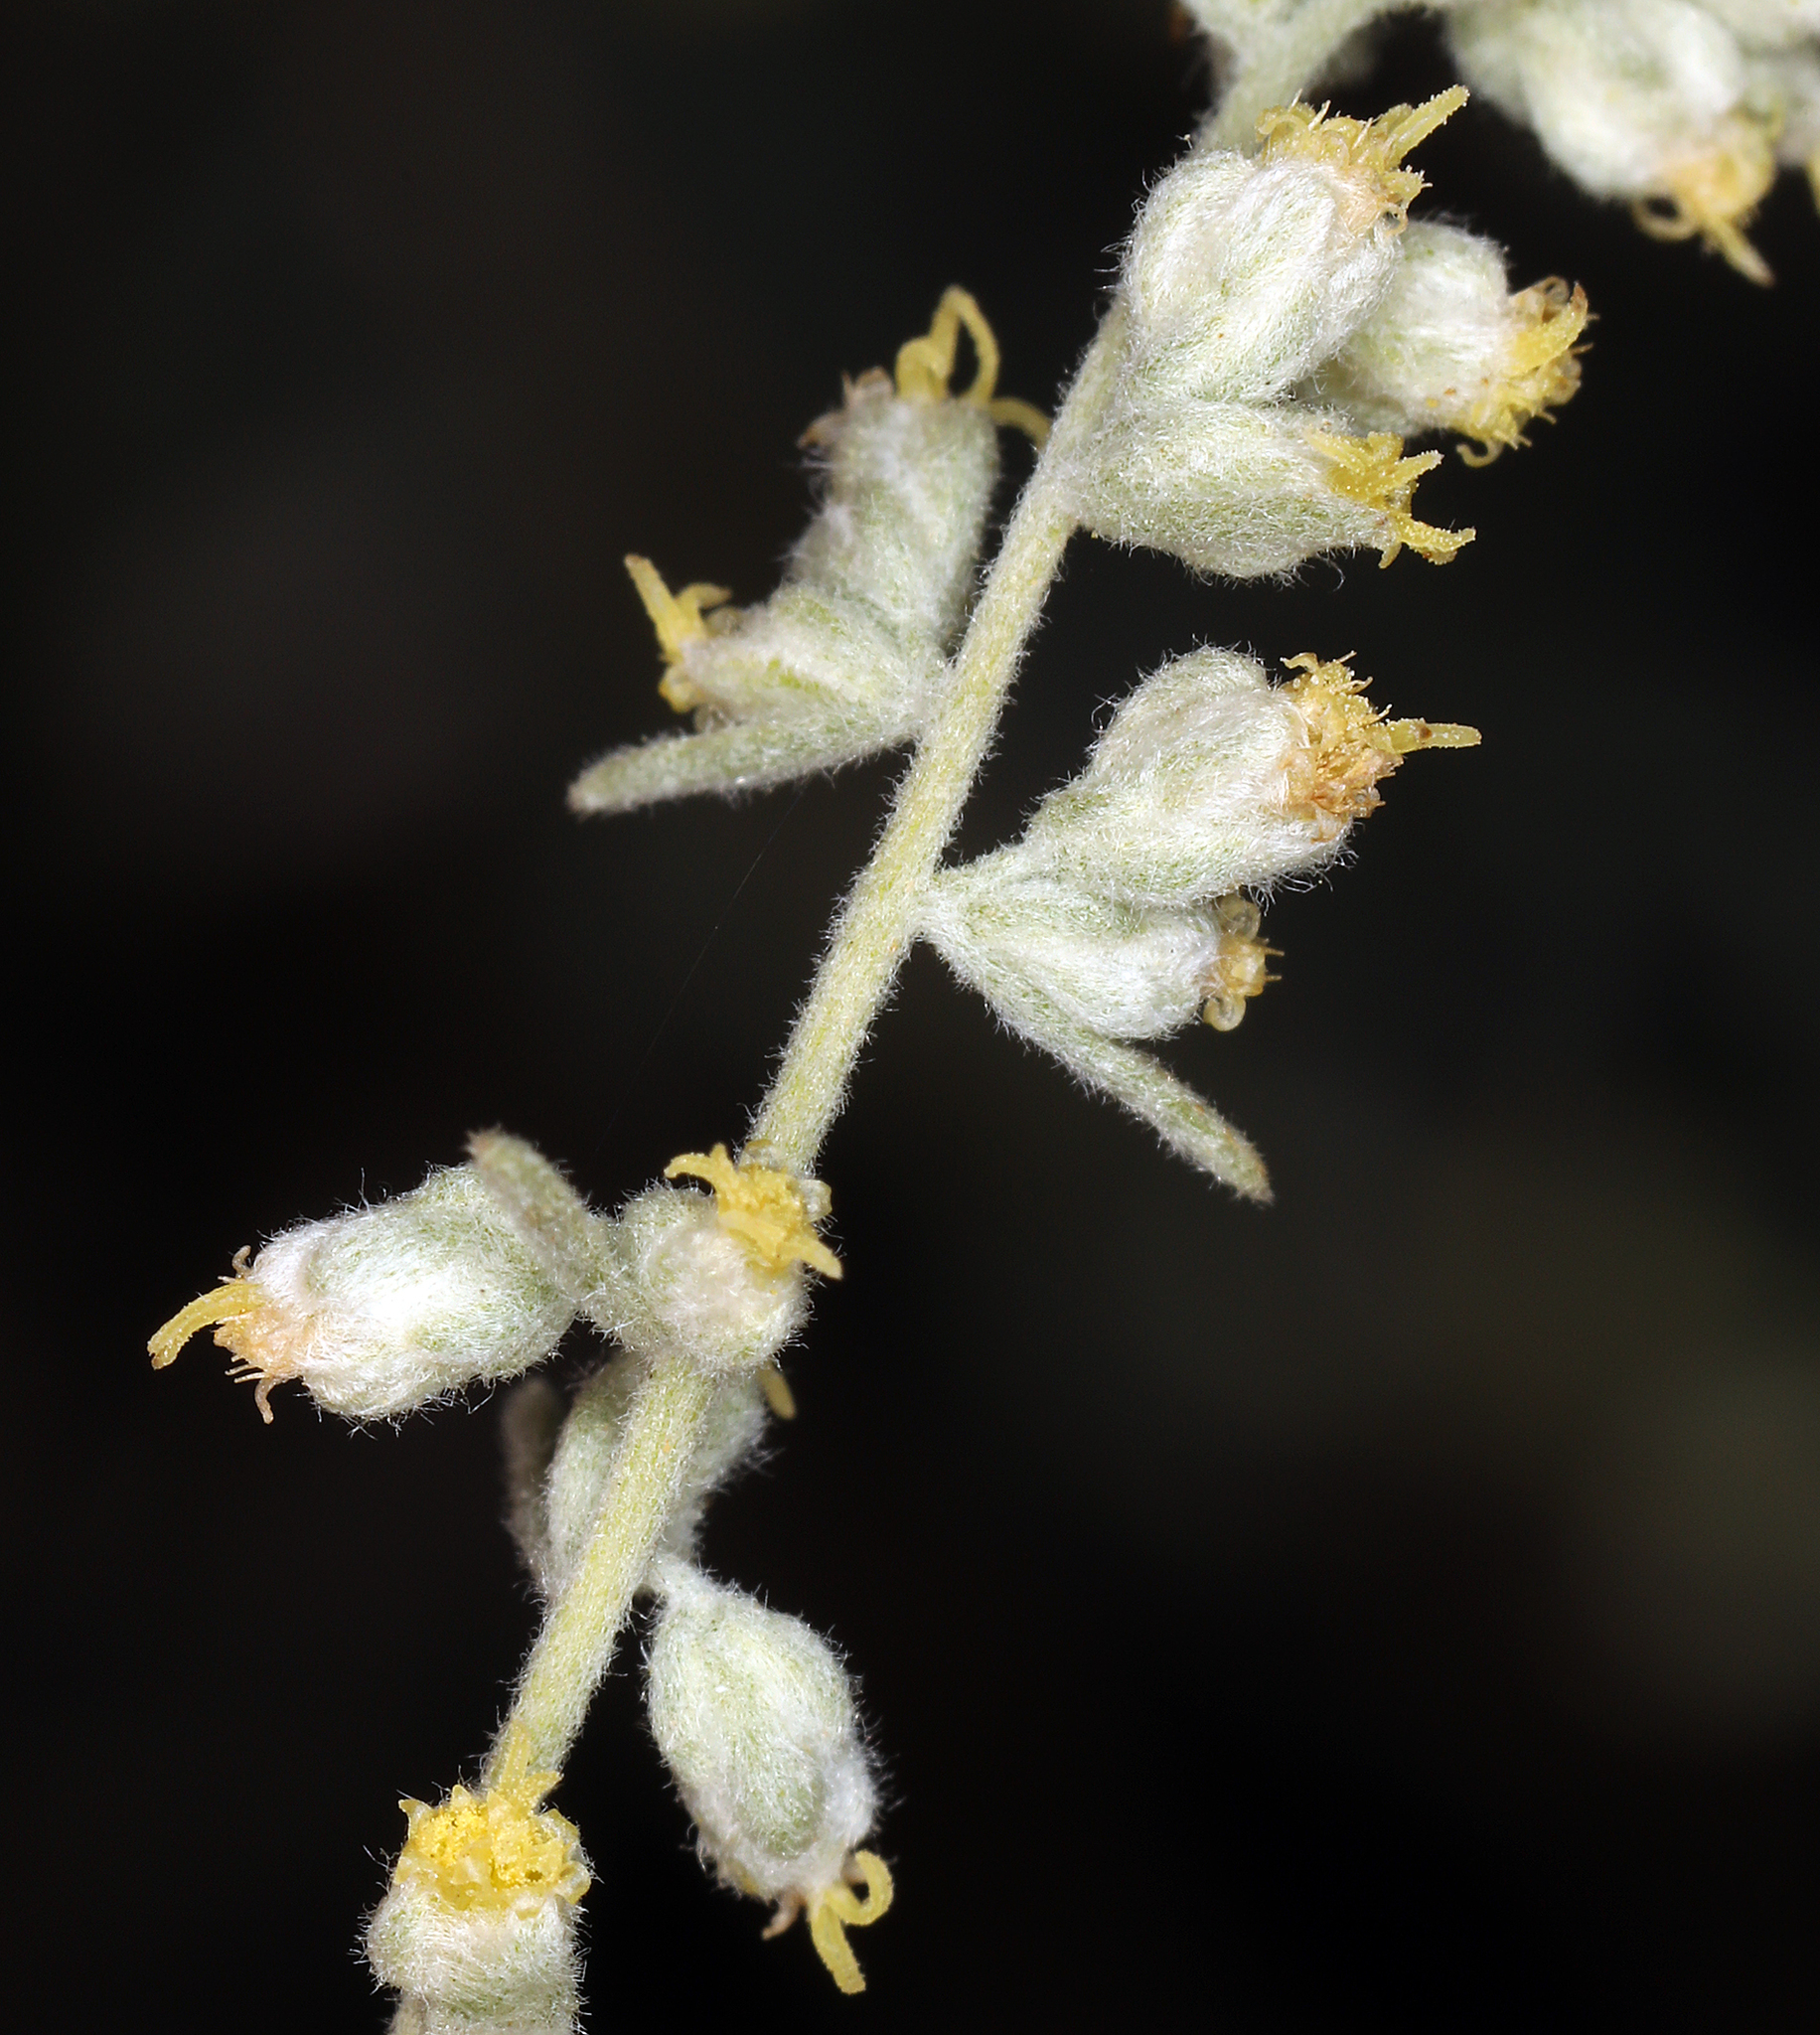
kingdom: Plantae
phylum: Tracheophyta
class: Magnoliopsida
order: Asterales
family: Asteraceae
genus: Artemisia
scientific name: Artemisia bigelovii
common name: Bigelow sagebrush
